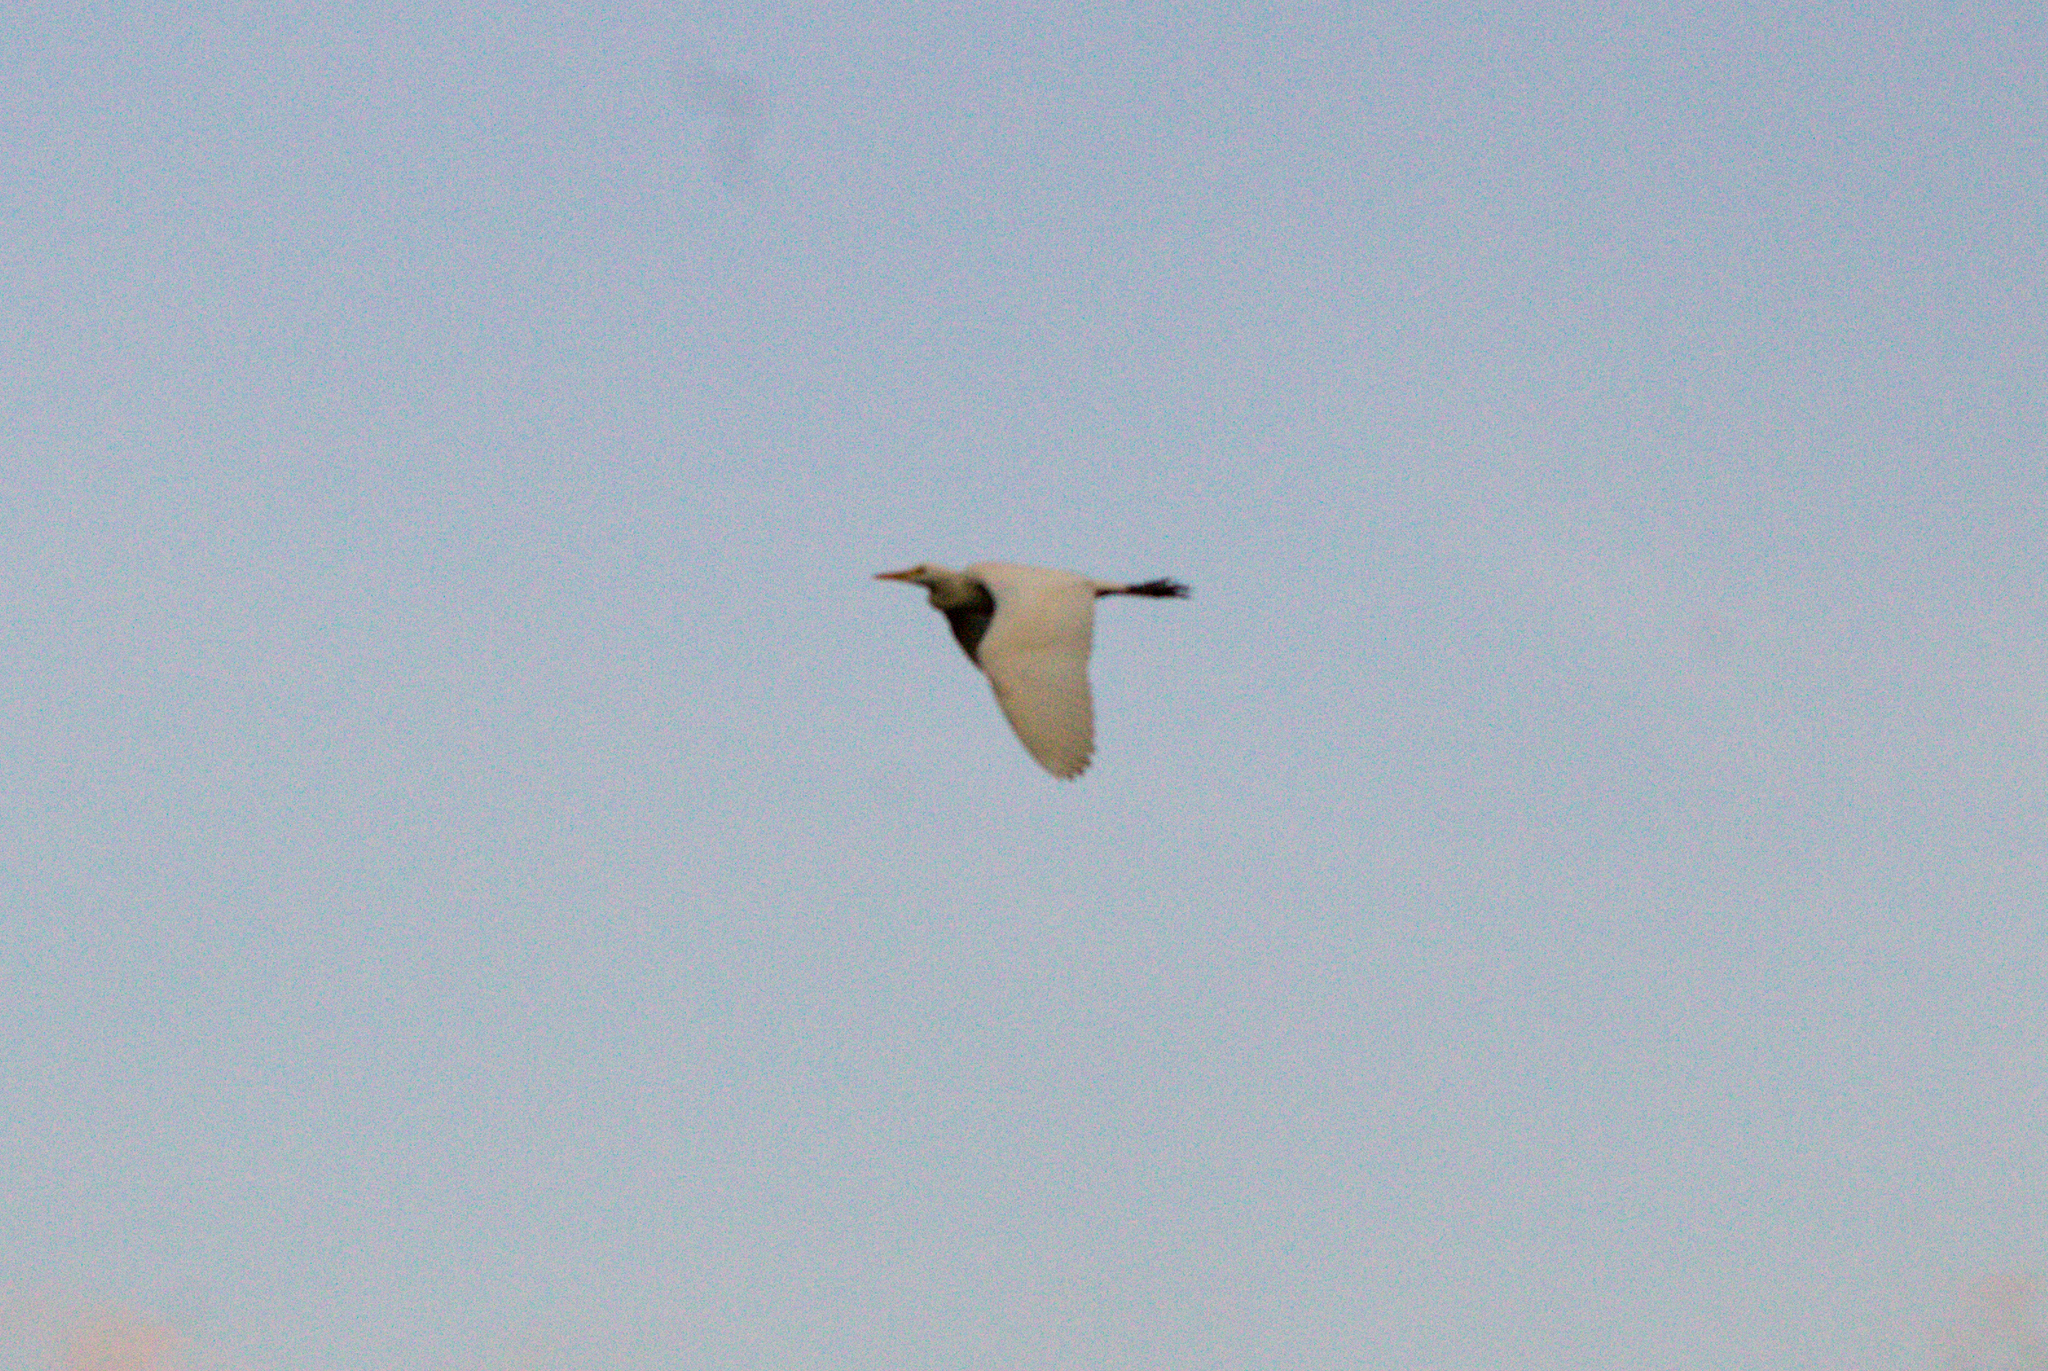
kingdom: Animalia
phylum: Chordata
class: Aves
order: Pelecaniformes
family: Ardeidae
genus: Bubulcus
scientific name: Bubulcus ibis
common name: Cattle egret
